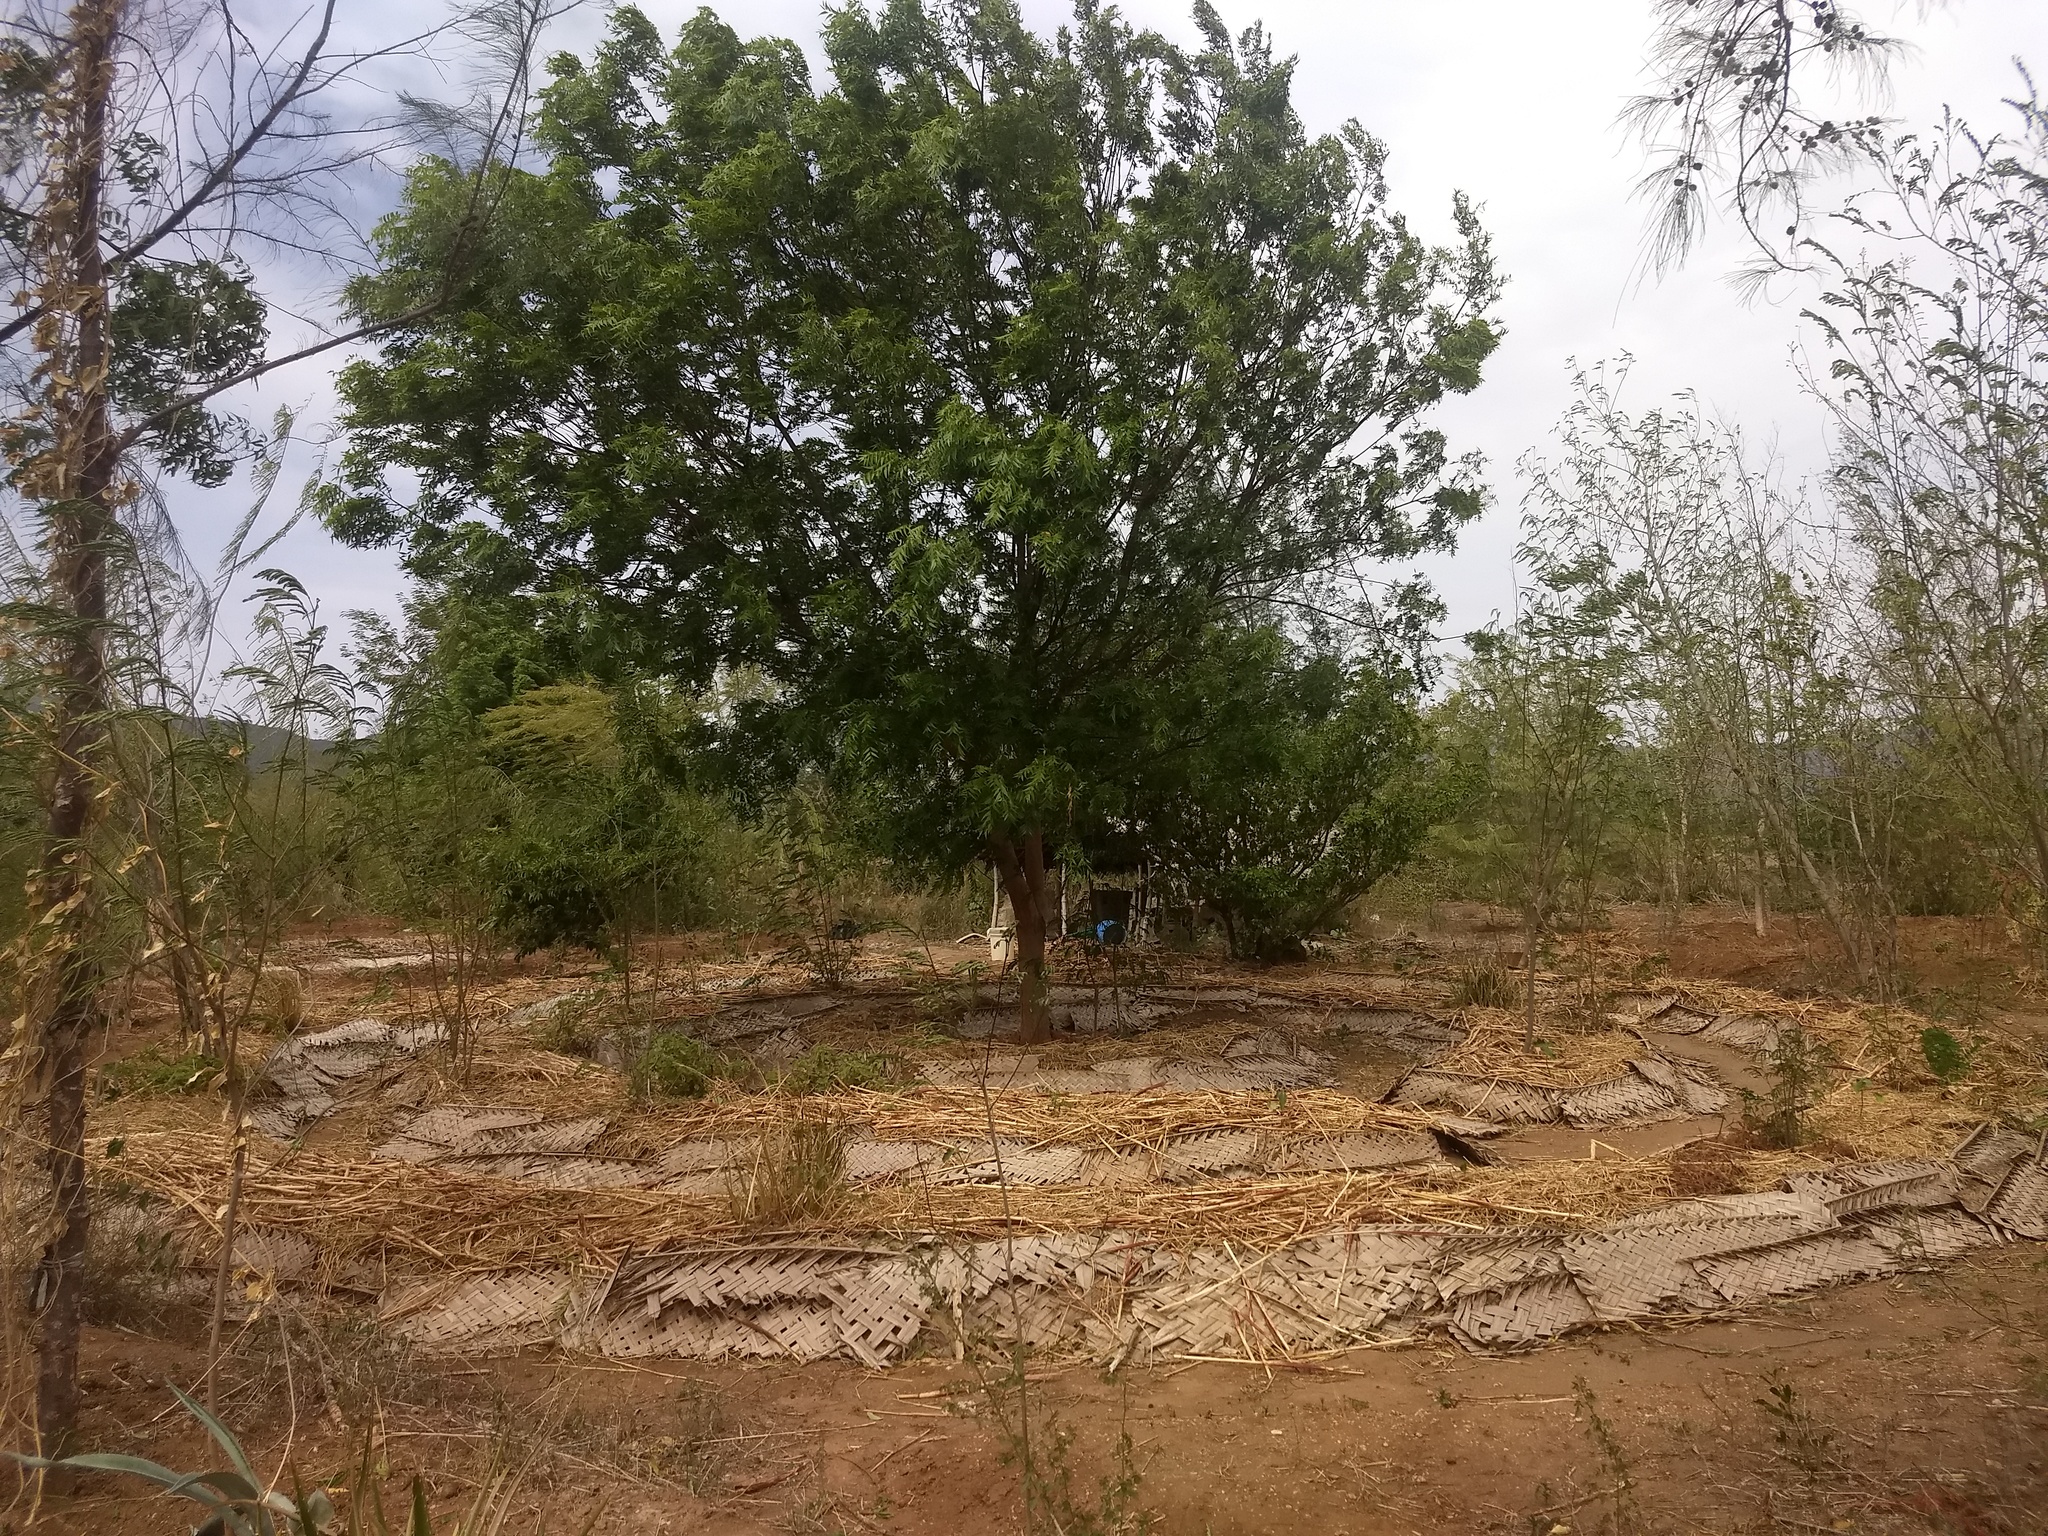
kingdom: Plantae
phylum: Tracheophyta
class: Magnoliopsida
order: Sapindales
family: Meliaceae
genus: Azadirachta
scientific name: Azadirachta indica
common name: Neem
